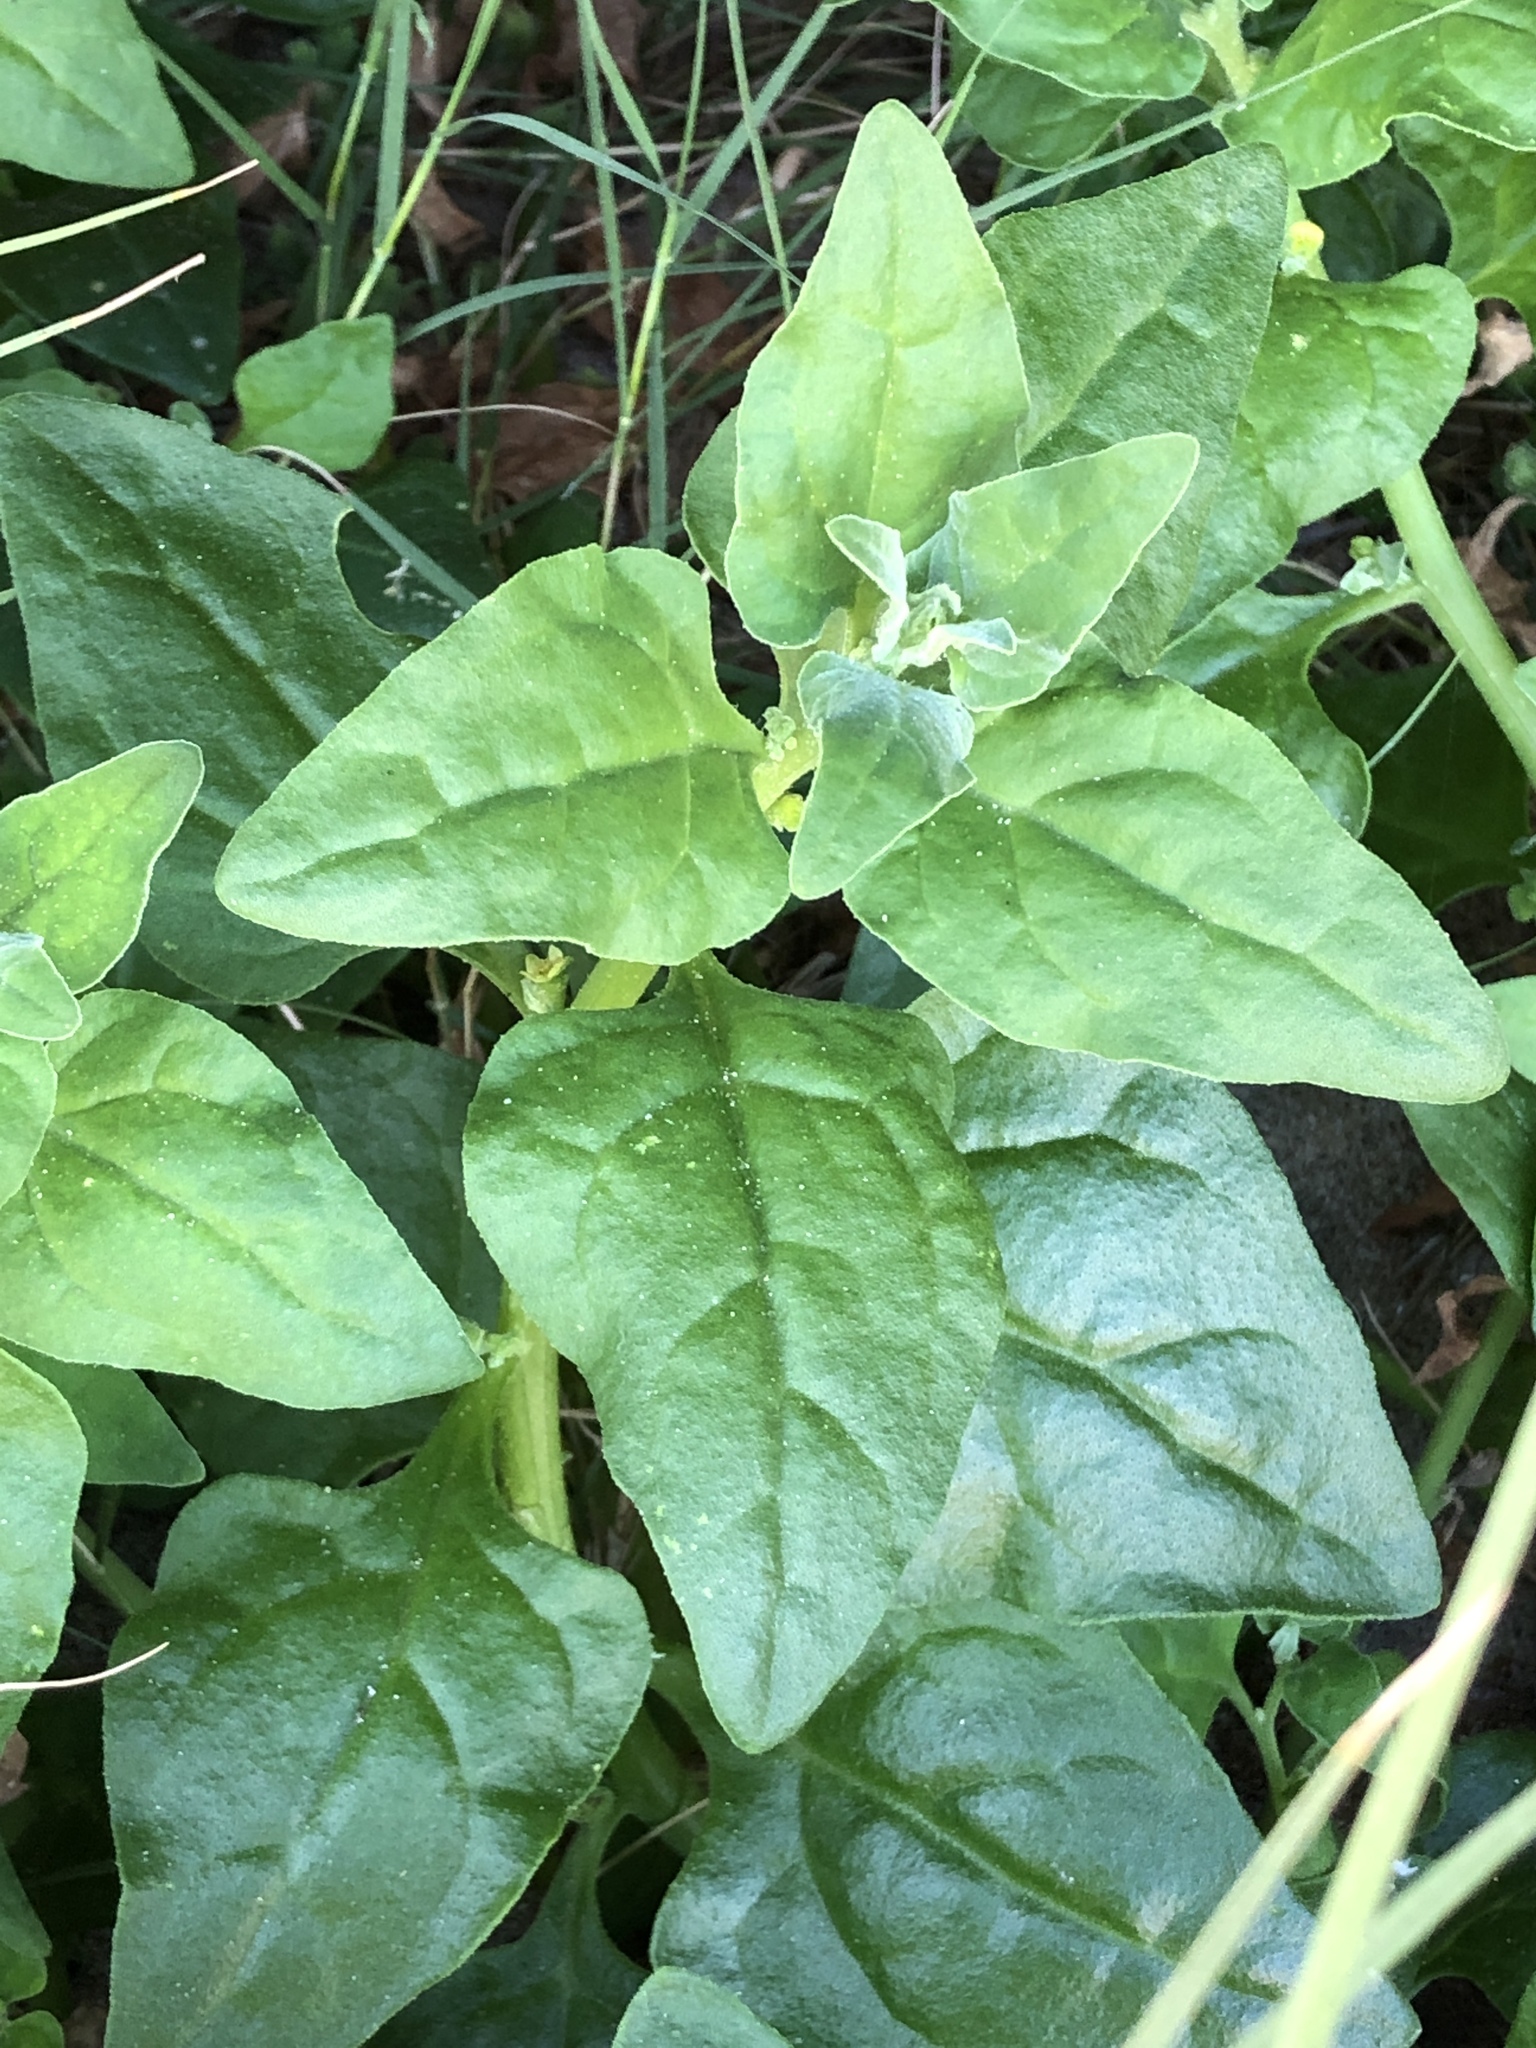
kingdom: Plantae
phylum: Tracheophyta
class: Magnoliopsida
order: Caryophyllales
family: Aizoaceae
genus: Tetragonia
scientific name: Tetragonia tetragonoides
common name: New zealand-spinach
